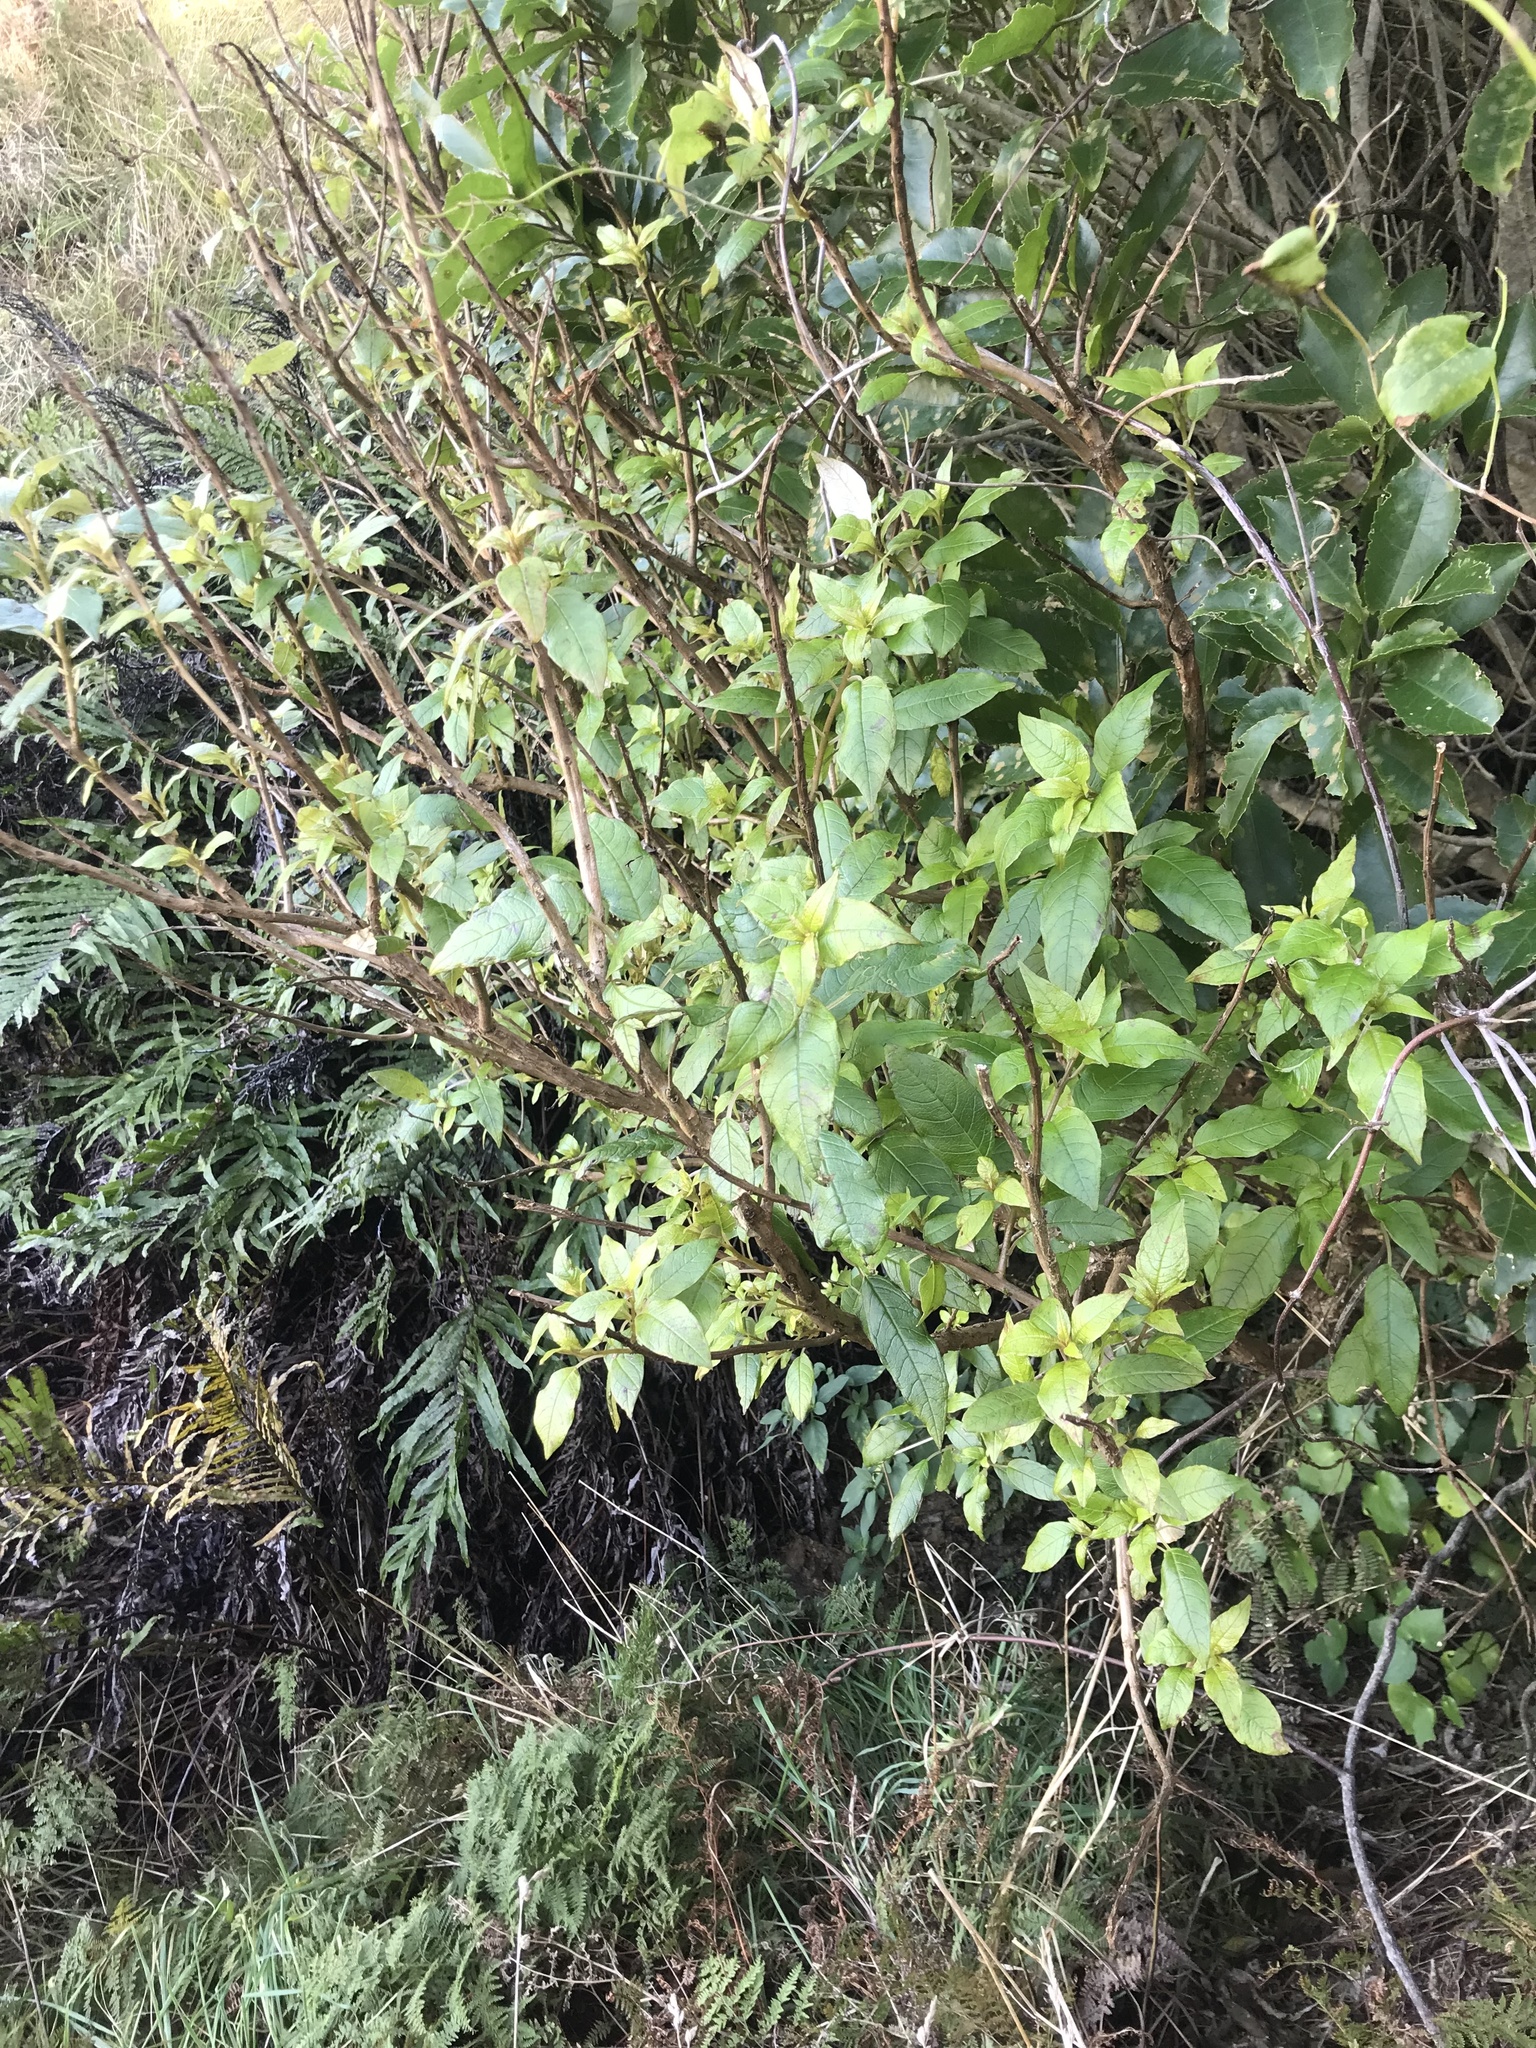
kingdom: Plantae
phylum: Tracheophyta
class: Magnoliopsida
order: Myrtales
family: Onagraceae
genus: Fuchsia
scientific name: Fuchsia excorticata
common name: Tree fuchsia
